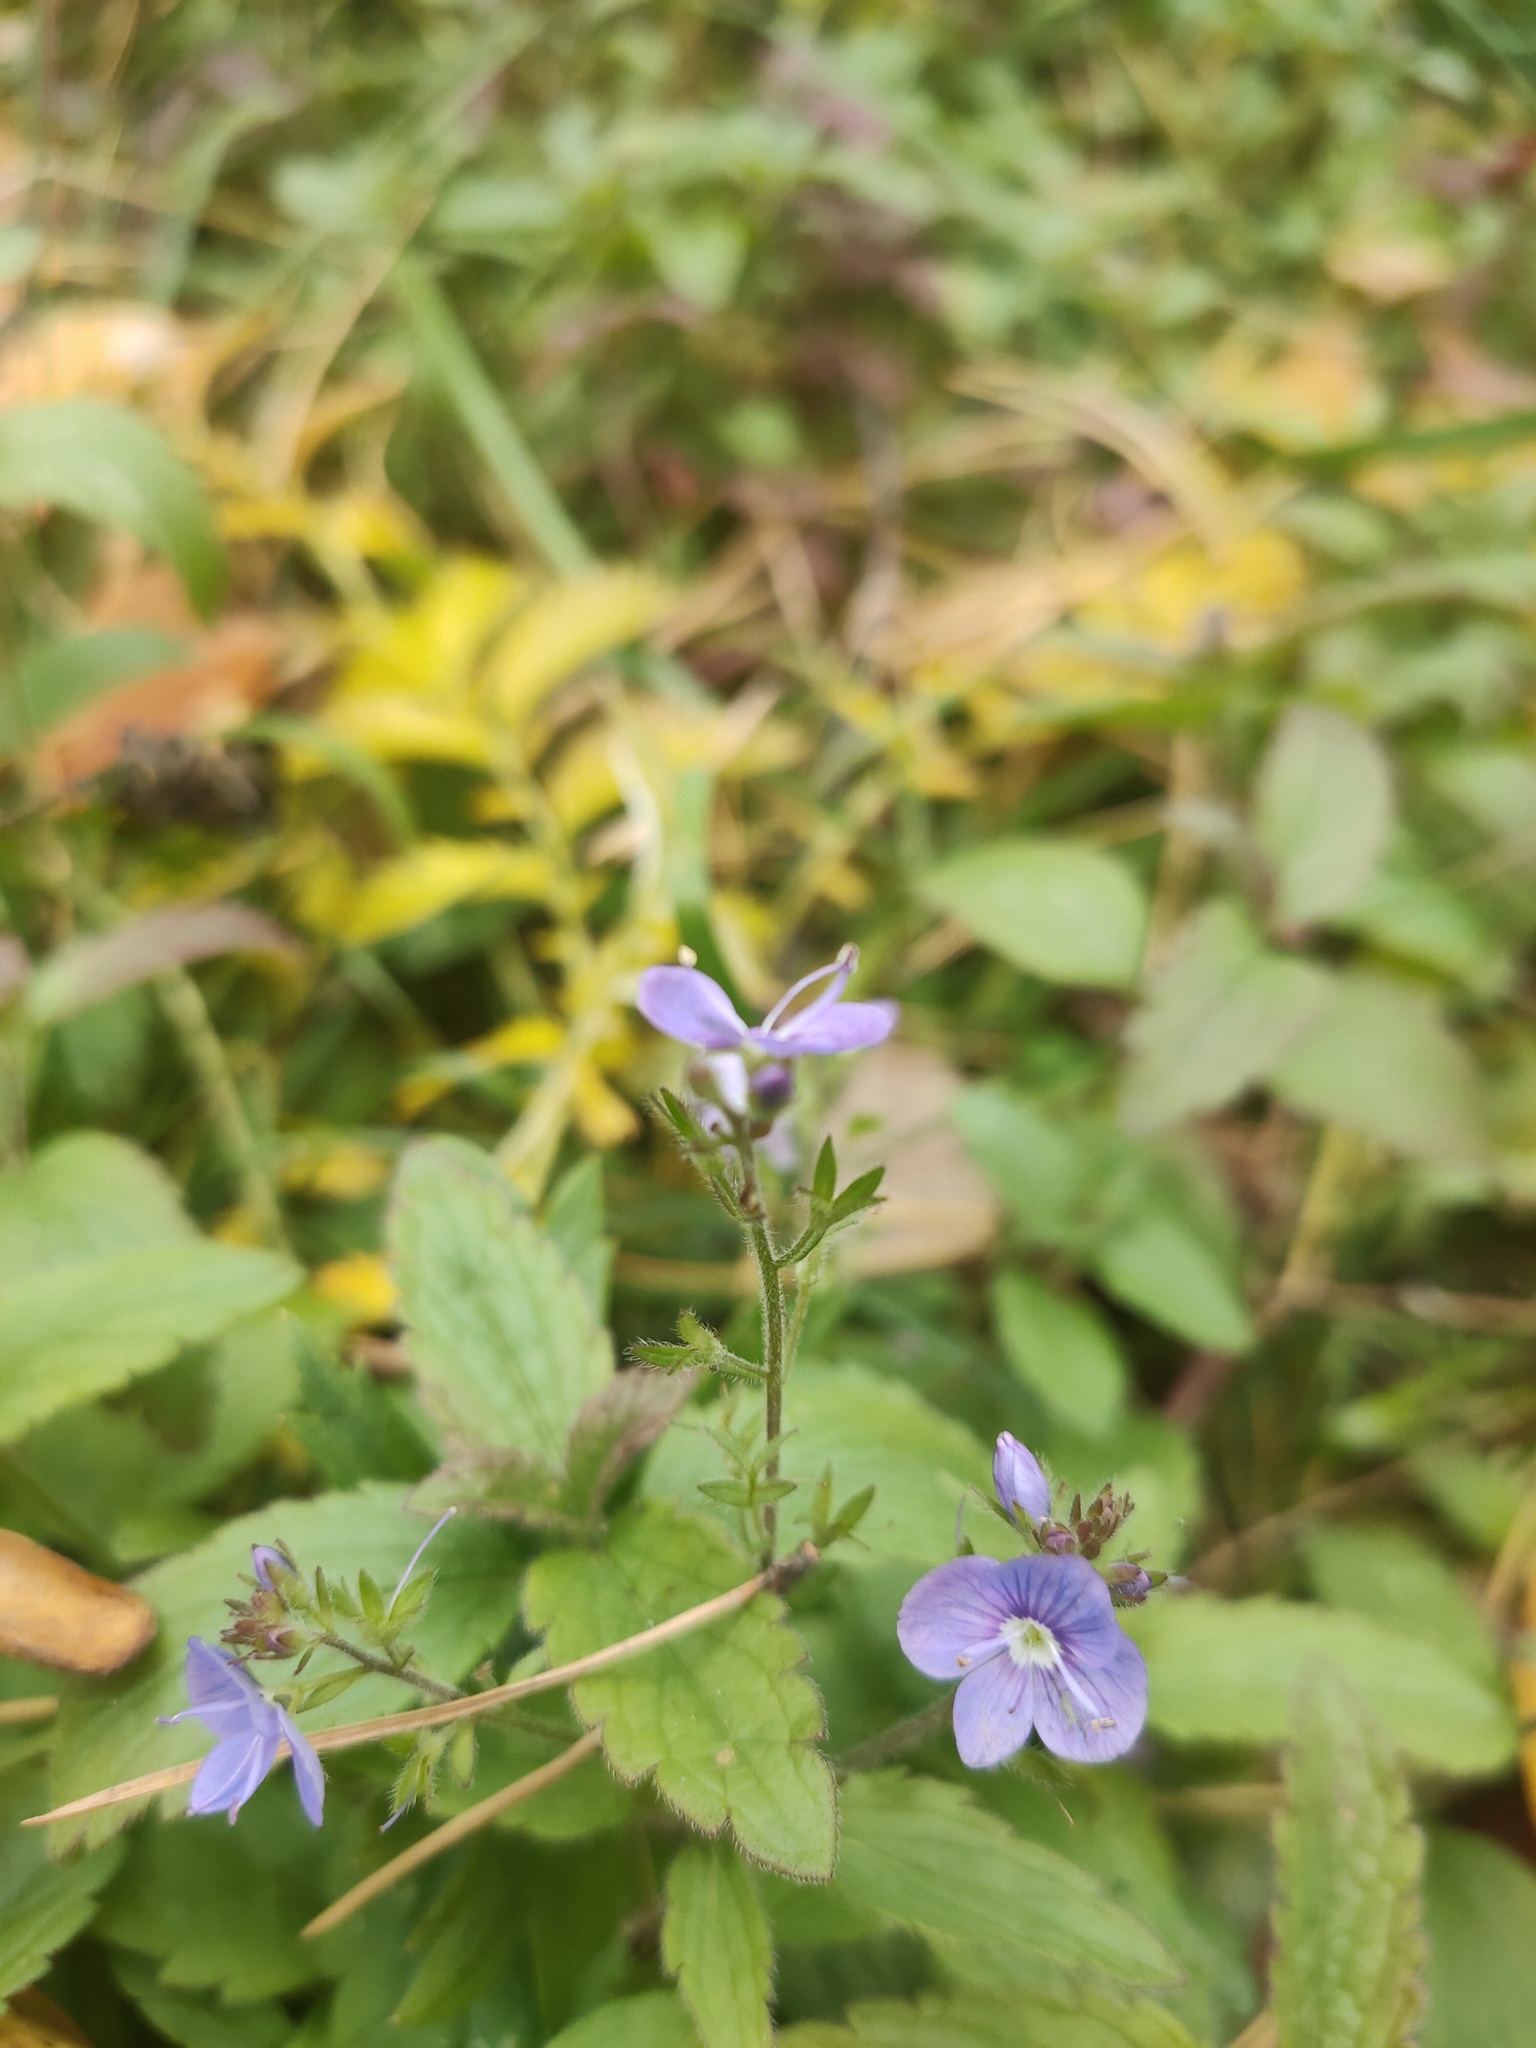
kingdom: Plantae
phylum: Tracheophyta
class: Magnoliopsida
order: Lamiales
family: Plantaginaceae
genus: Veronica
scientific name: Veronica chamaedrys
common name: Germander speedwell
